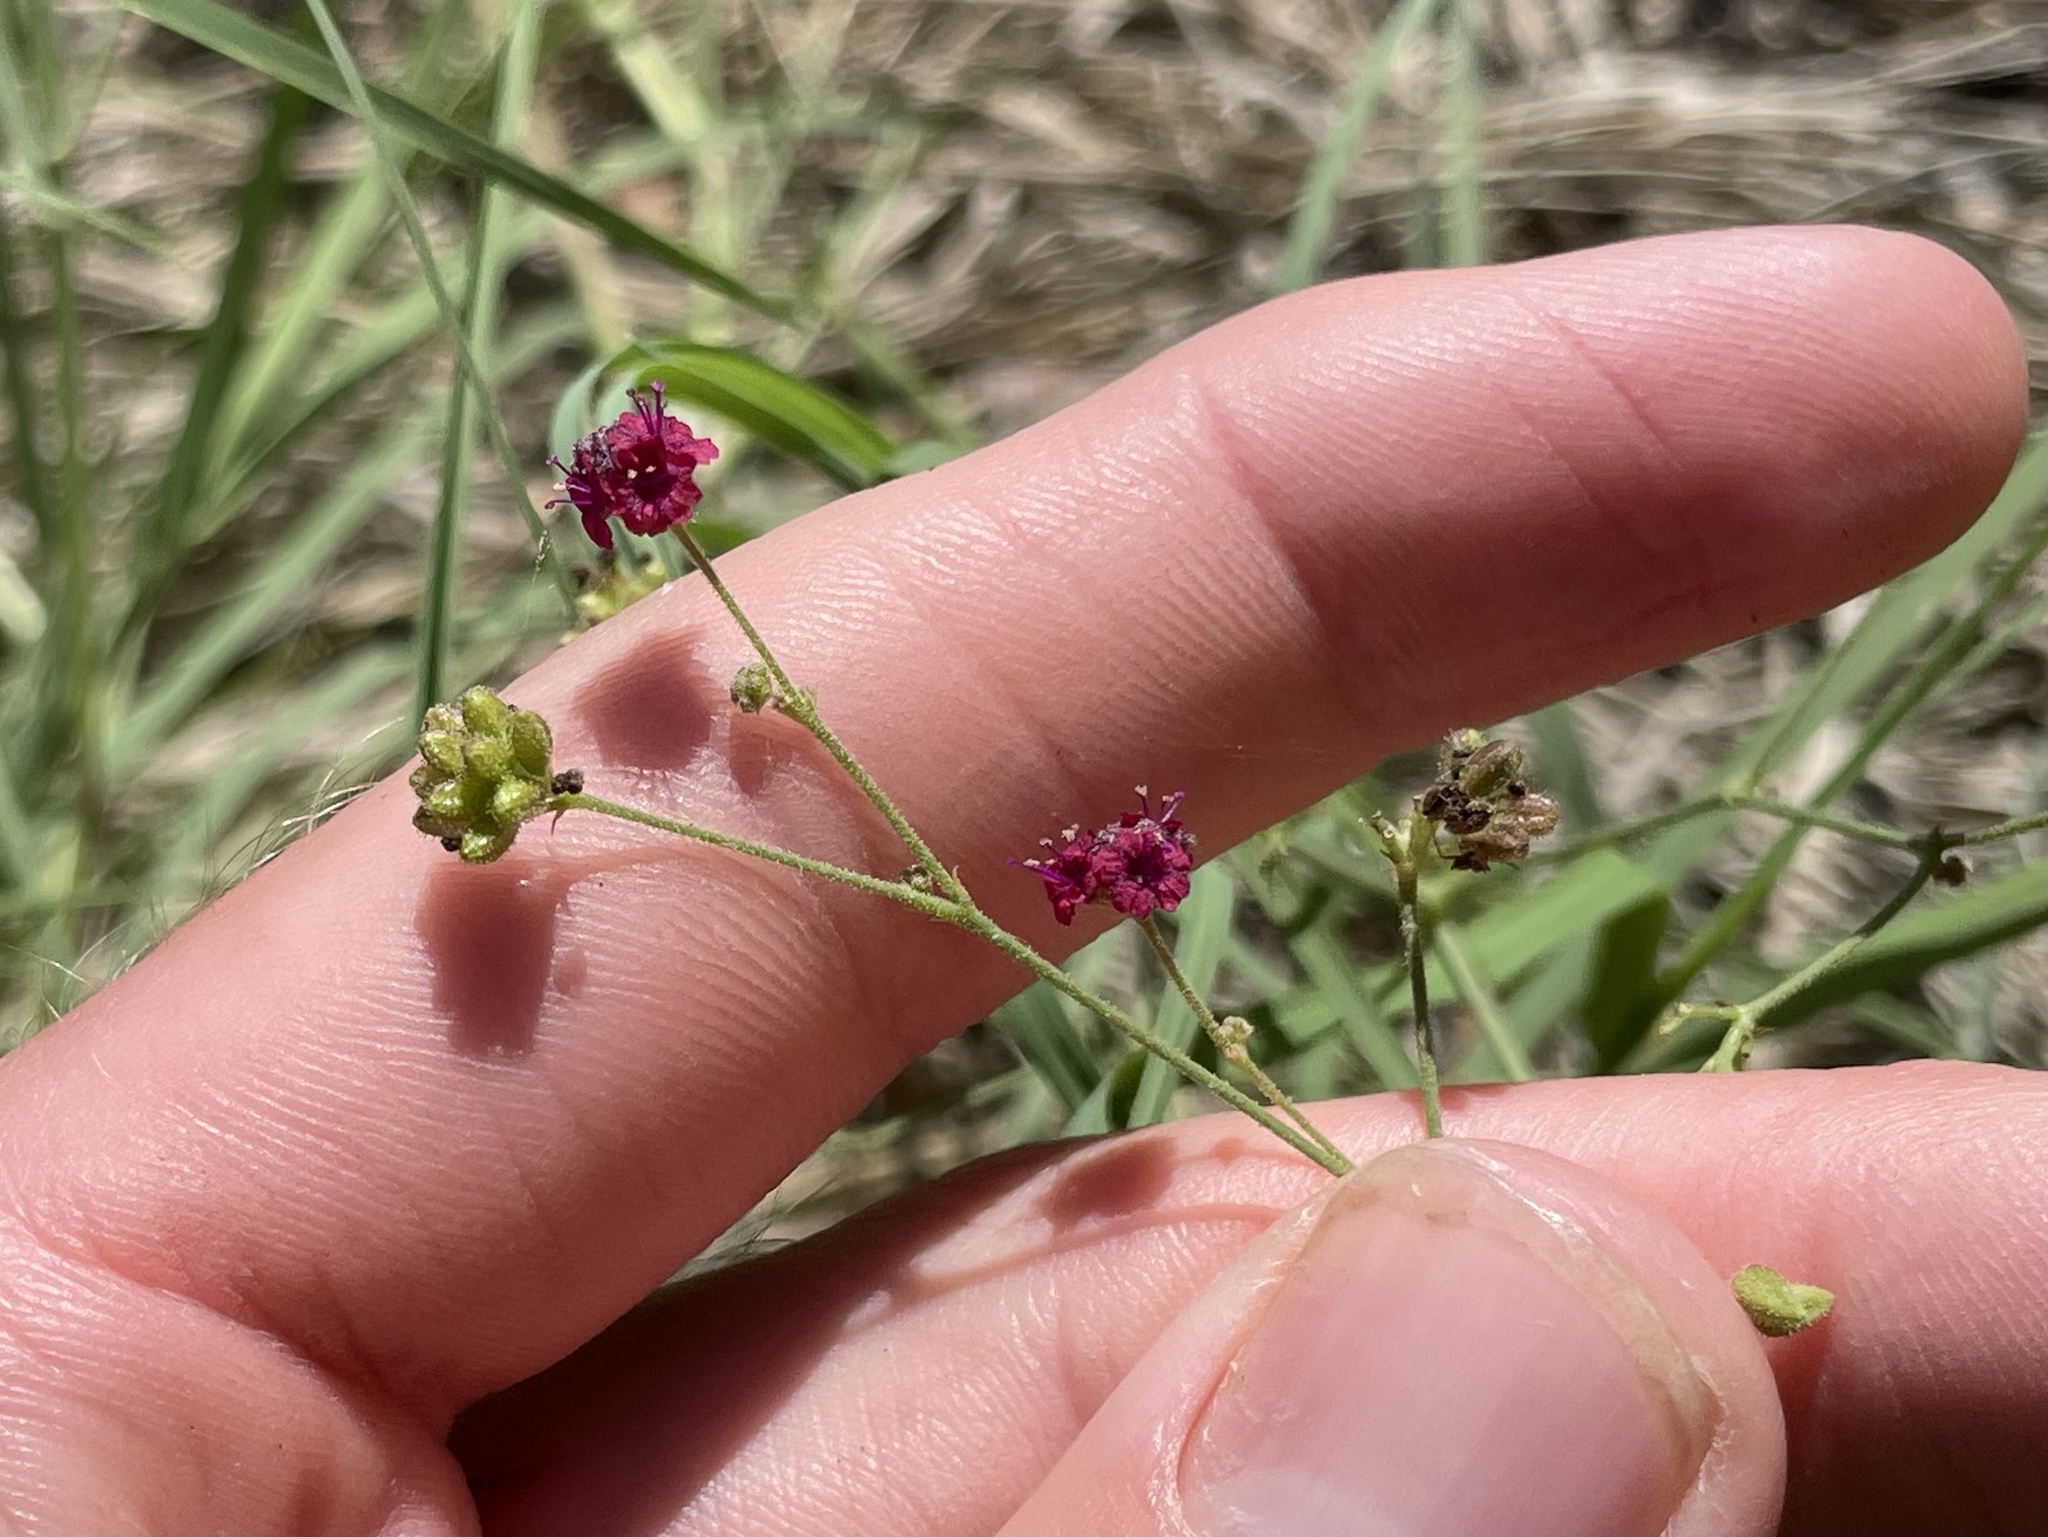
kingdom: Plantae
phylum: Tracheophyta
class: Magnoliopsida
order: Caryophyllales
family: Nyctaginaceae
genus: Boerhavia
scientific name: Boerhavia coccinea
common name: Scarlet spiderling
